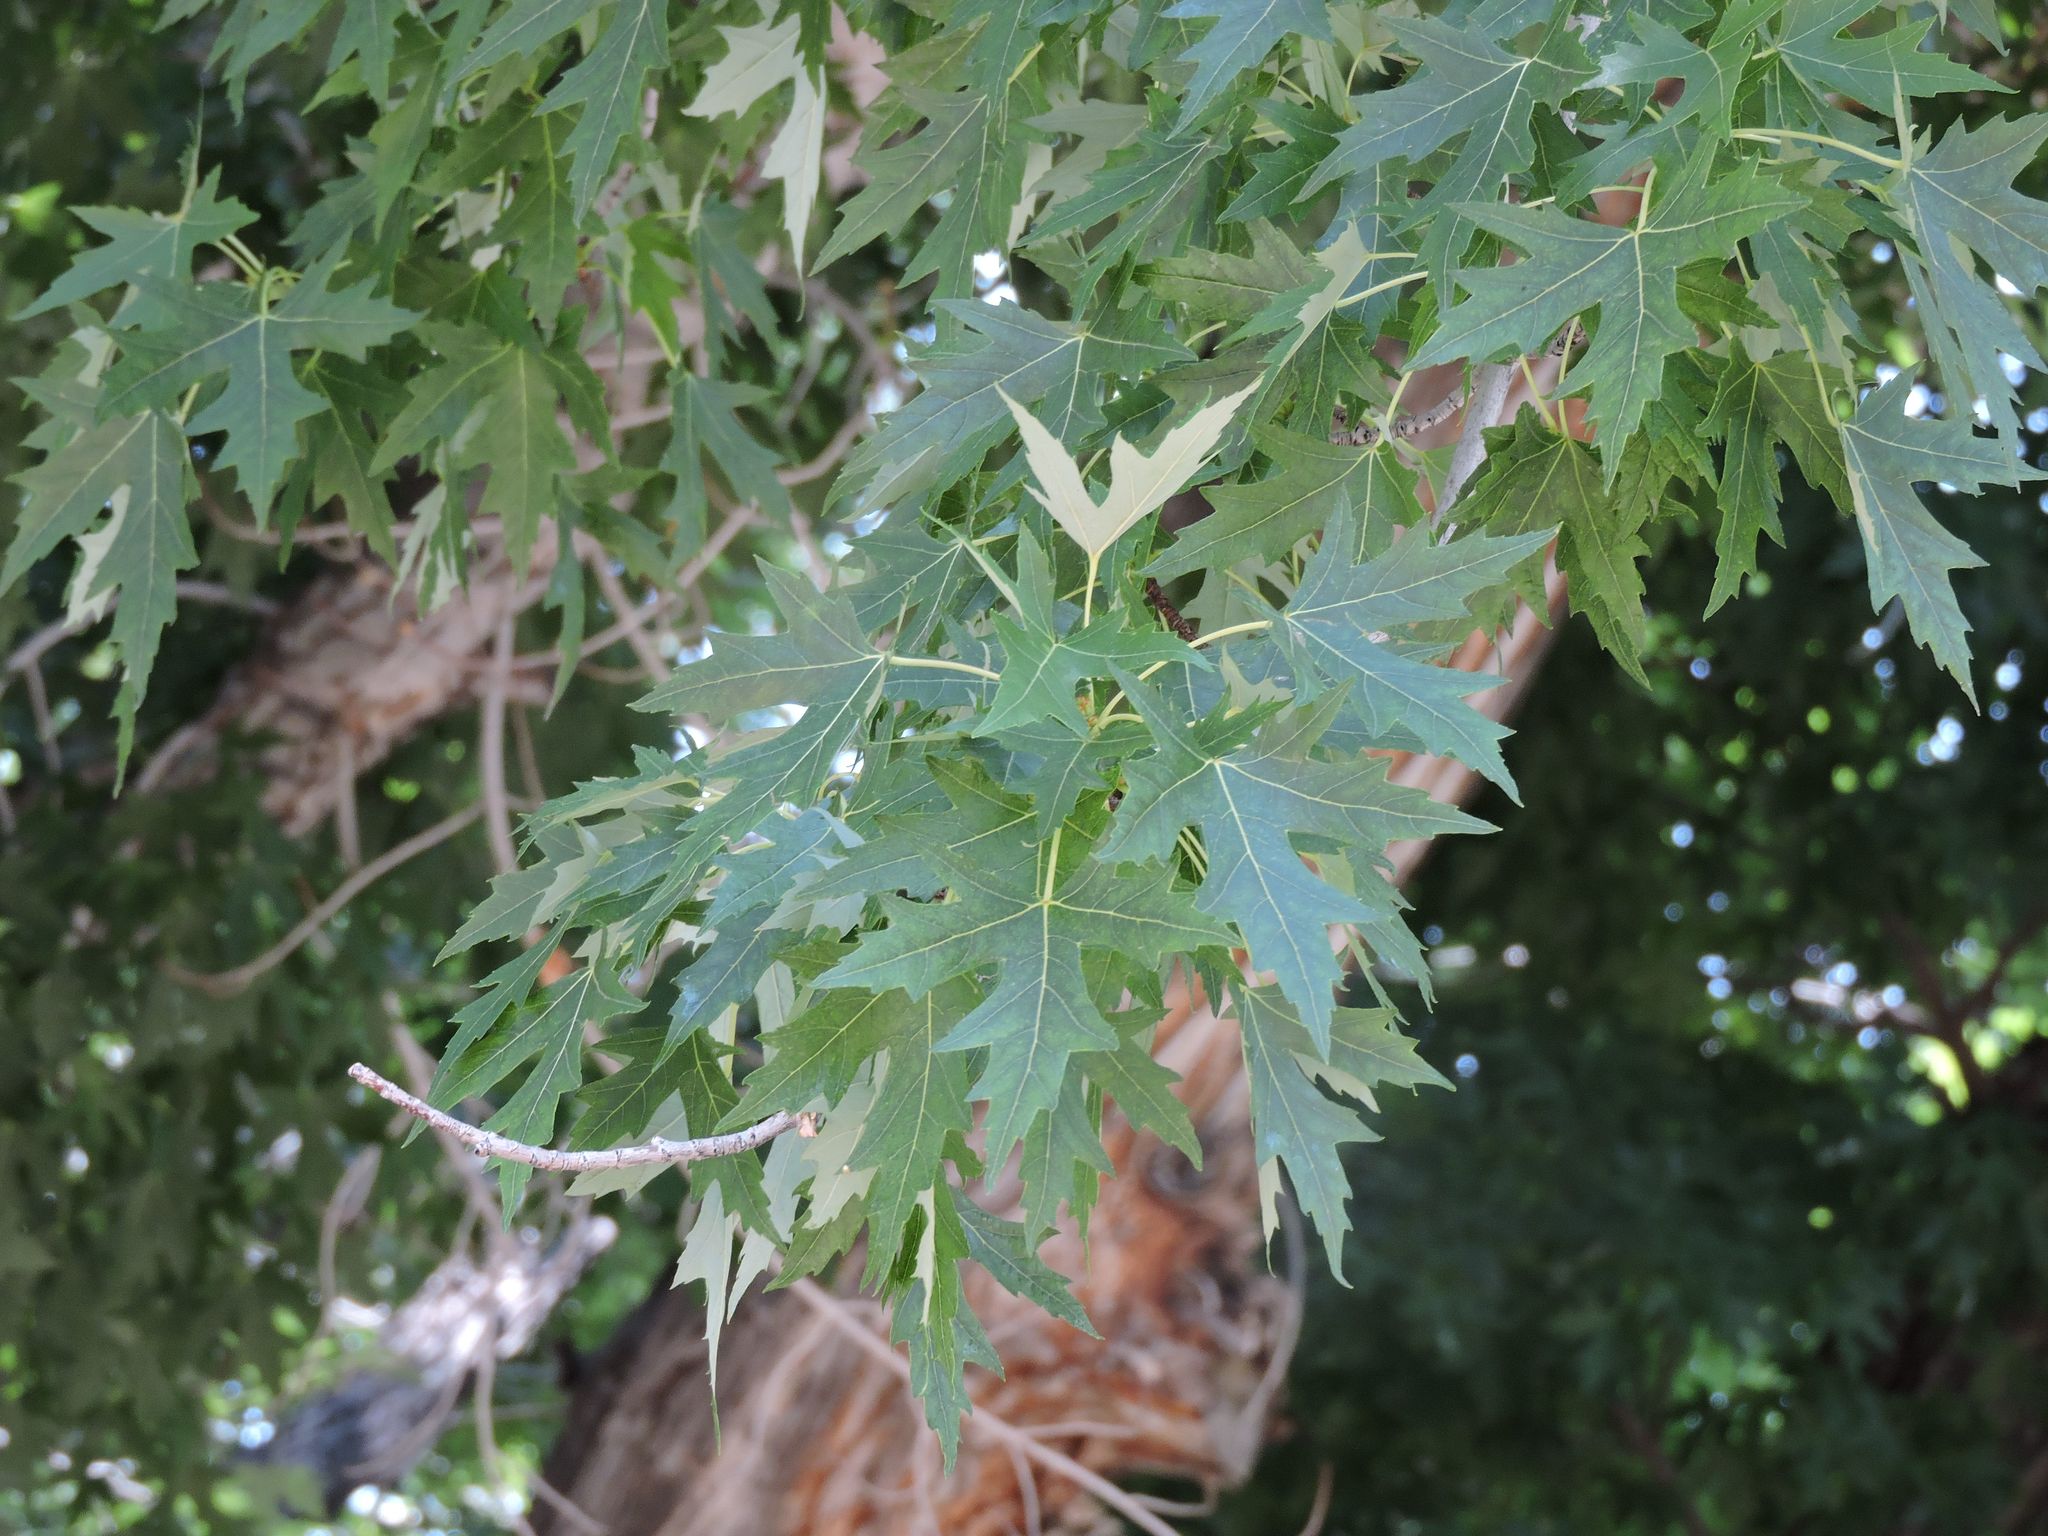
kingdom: Plantae
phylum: Tracheophyta
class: Magnoliopsida
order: Sapindales
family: Sapindaceae
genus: Acer
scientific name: Acer saccharinum
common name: Silver maple
